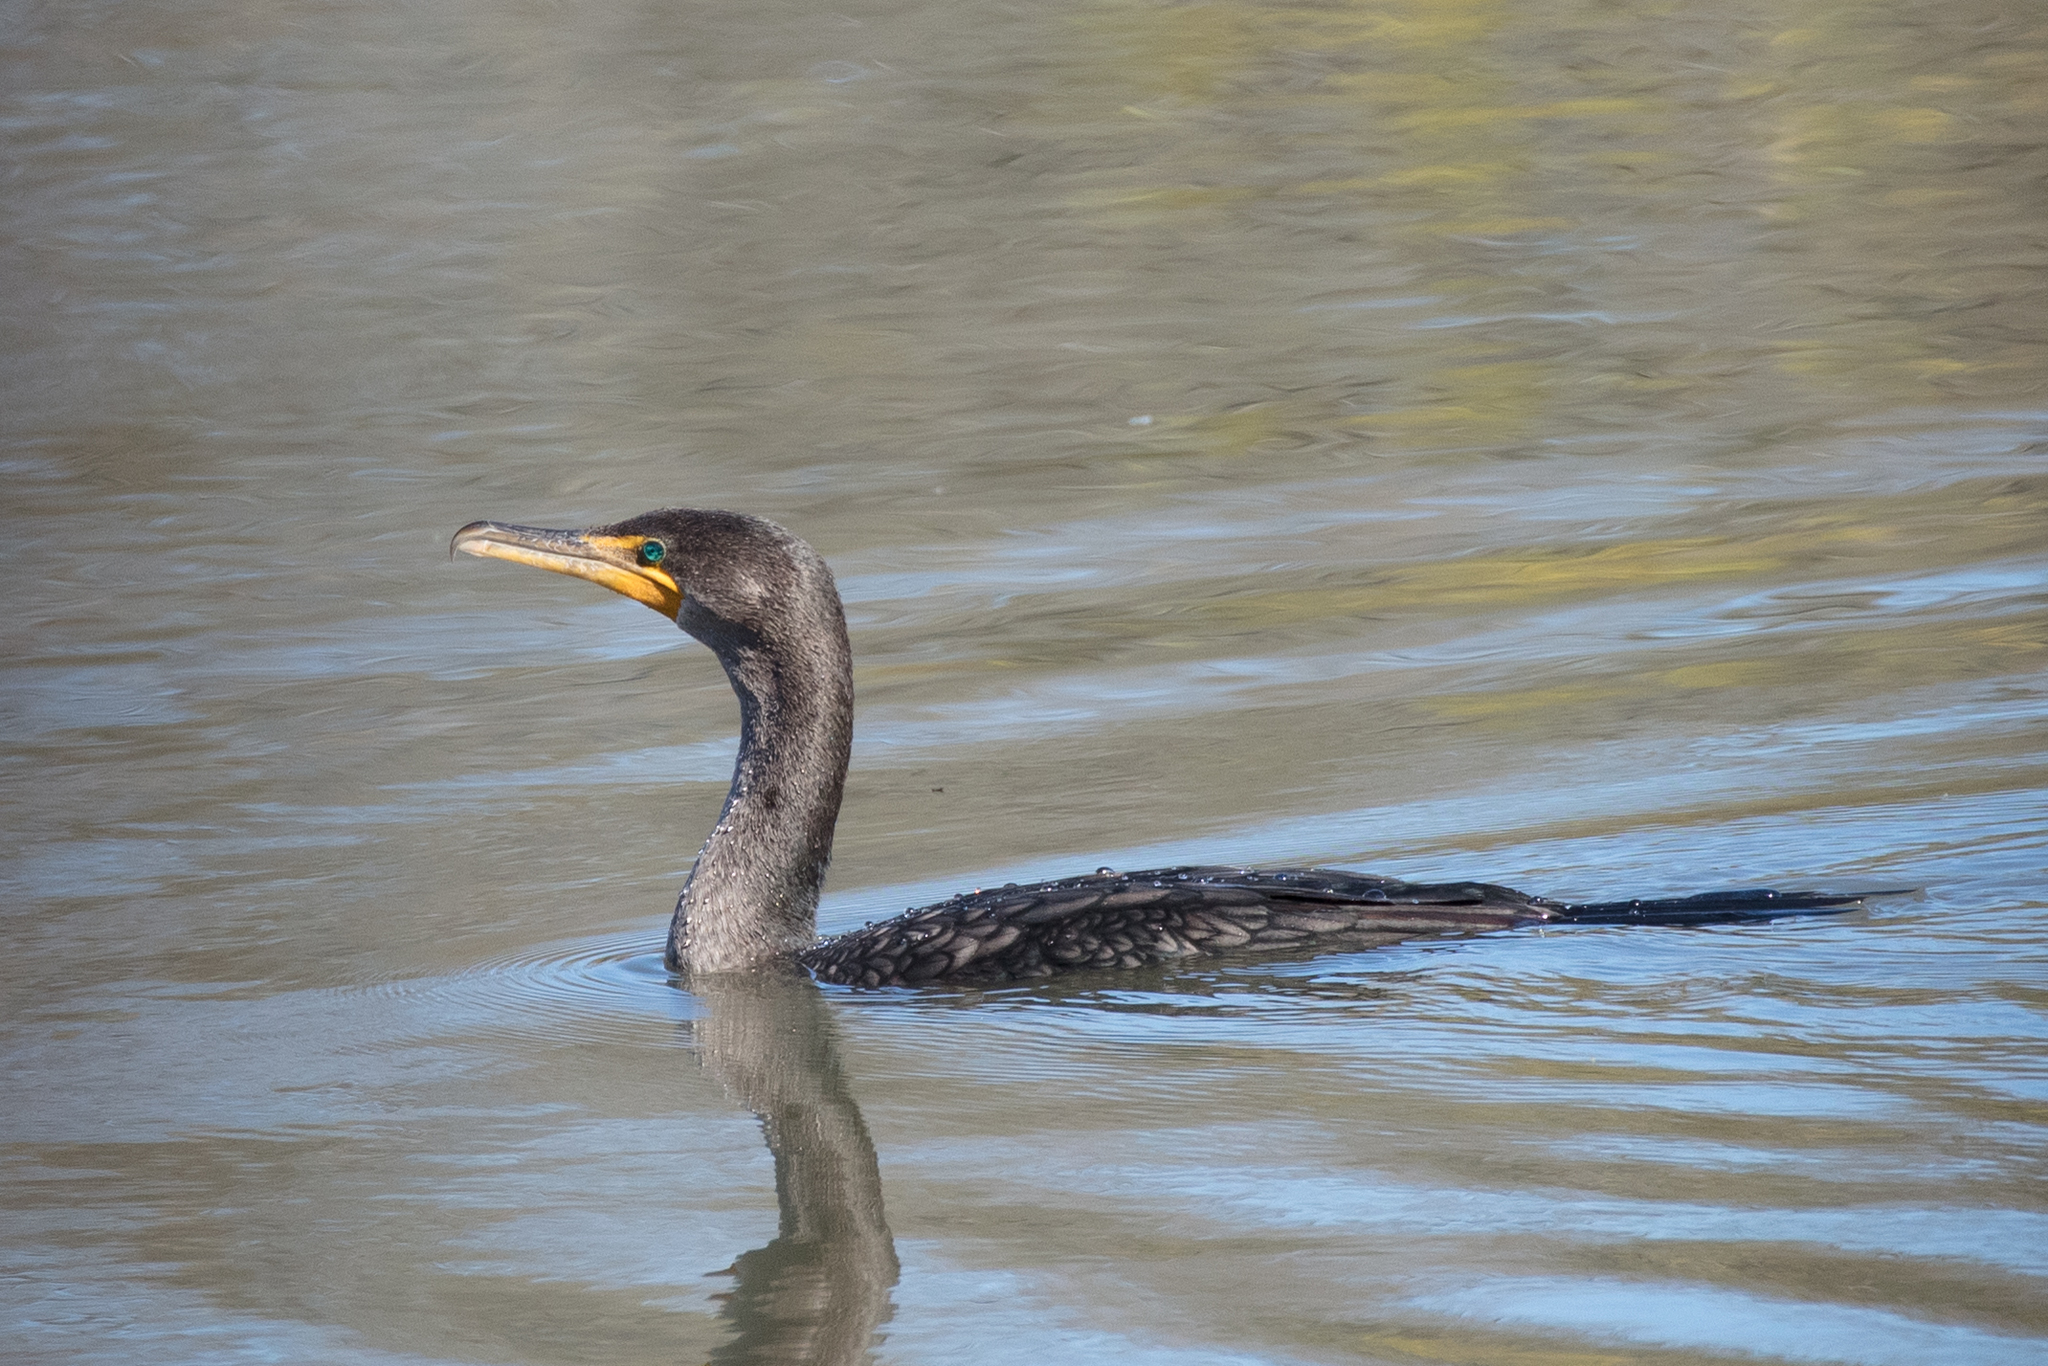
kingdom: Animalia
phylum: Chordata
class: Aves
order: Suliformes
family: Phalacrocoracidae
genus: Phalacrocorax
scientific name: Phalacrocorax auritus
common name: Double-crested cormorant
